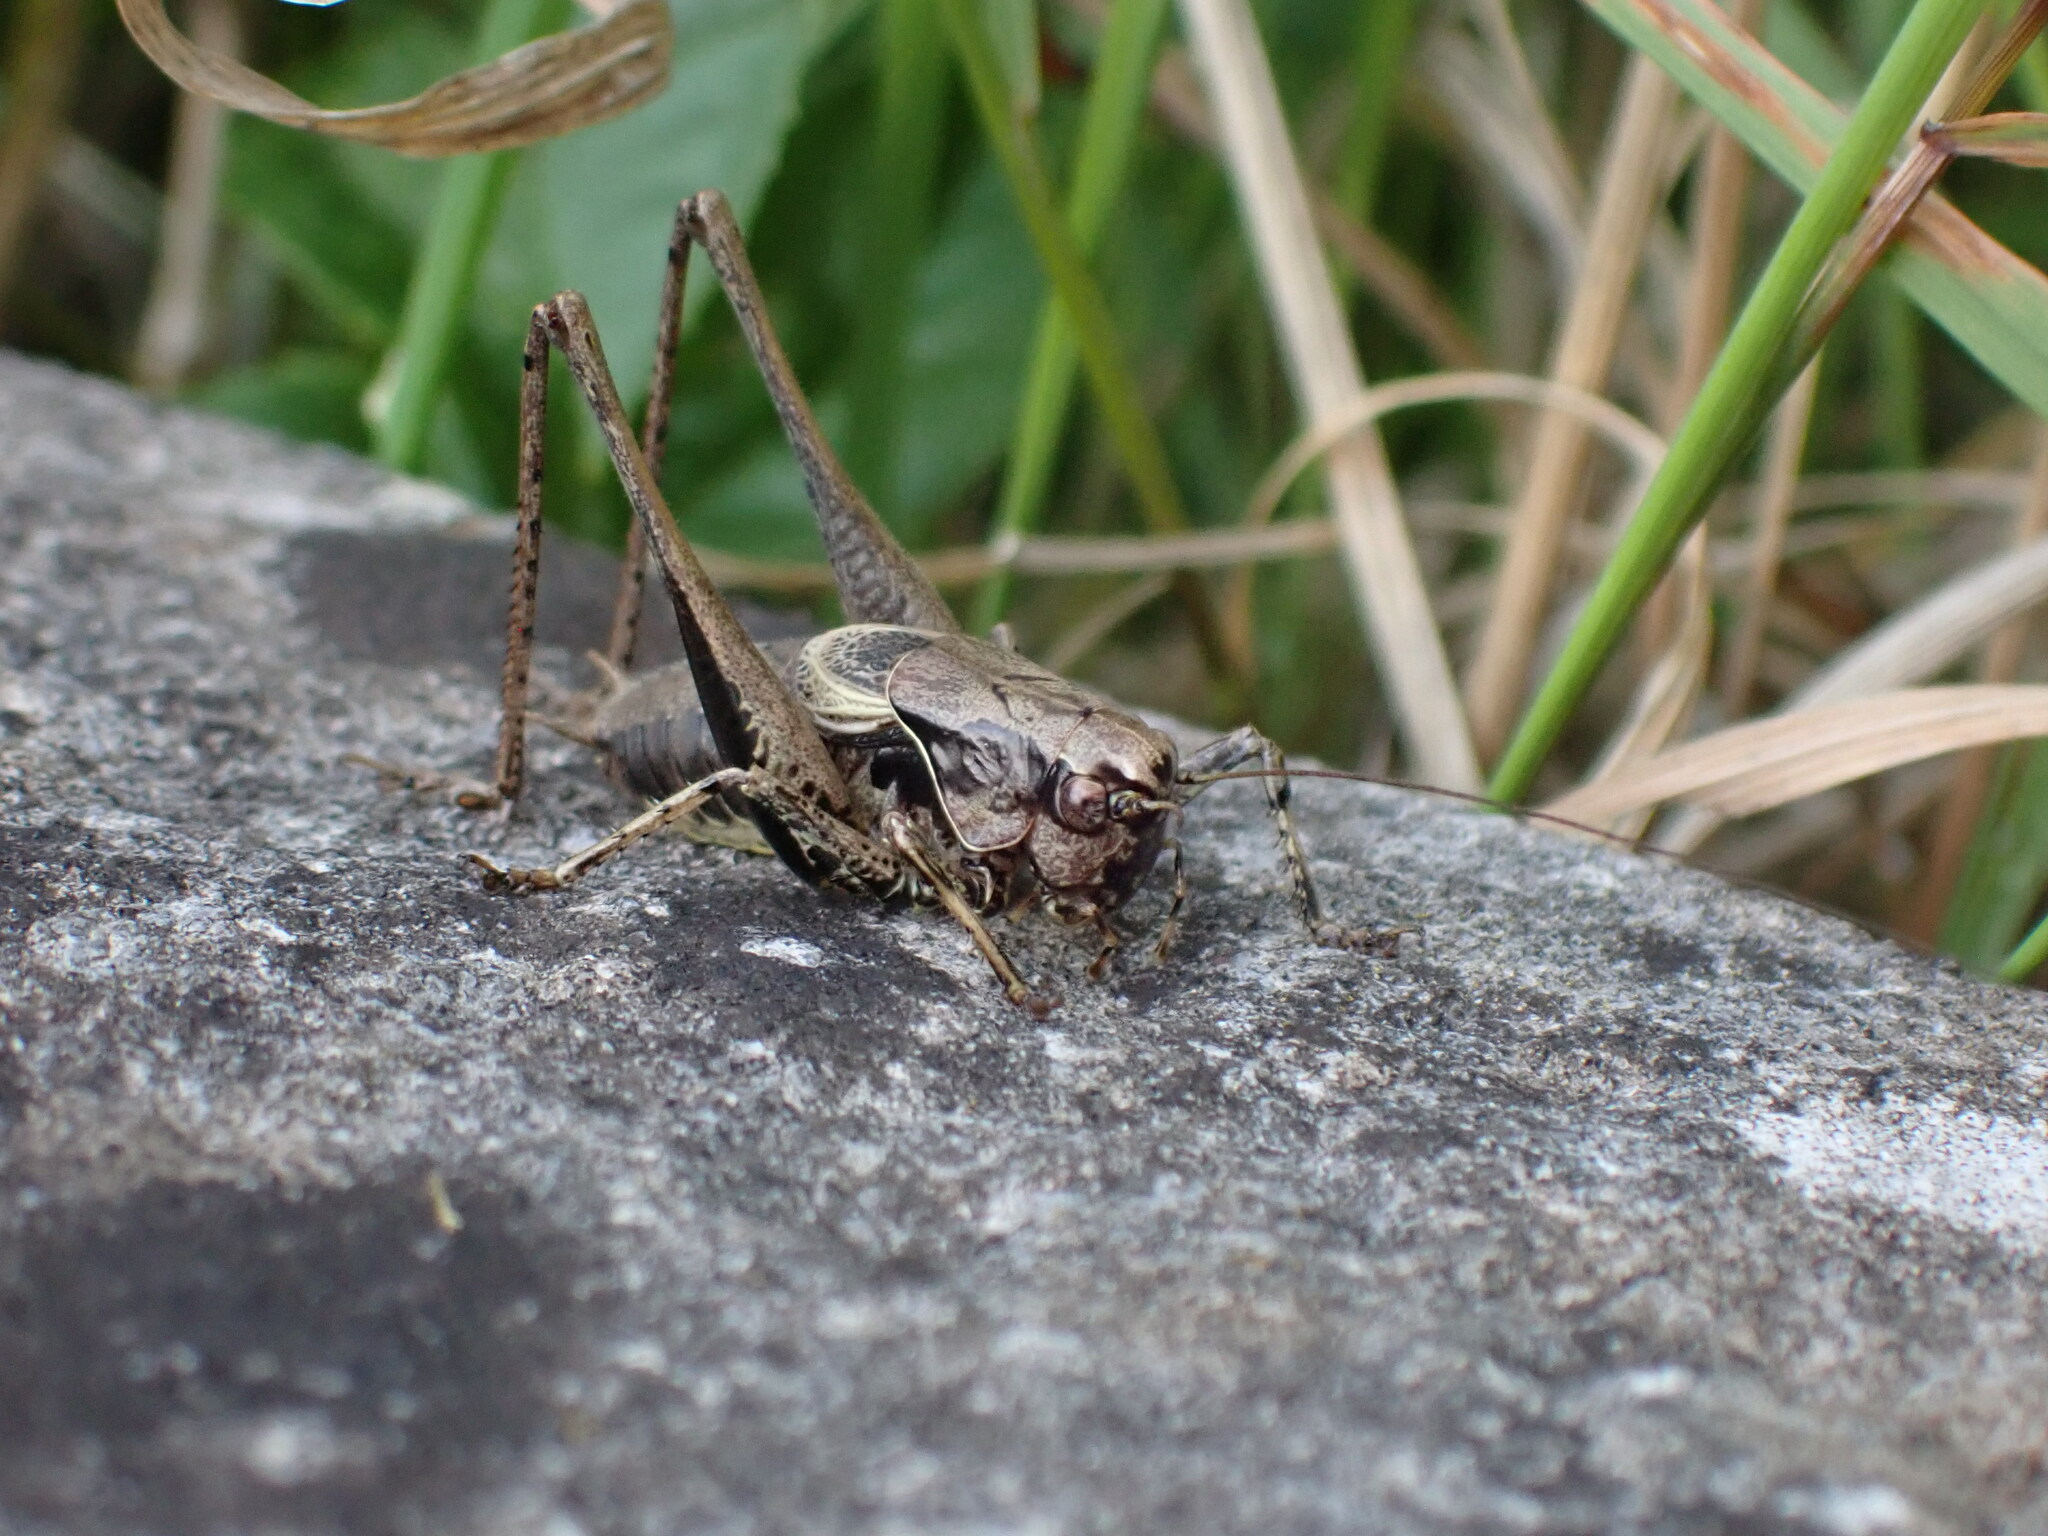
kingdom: Animalia
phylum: Arthropoda
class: Insecta
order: Orthoptera
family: Tettigoniidae
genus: Pholidoptera
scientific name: Pholidoptera griseoaptera
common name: Dark bush-cricket
